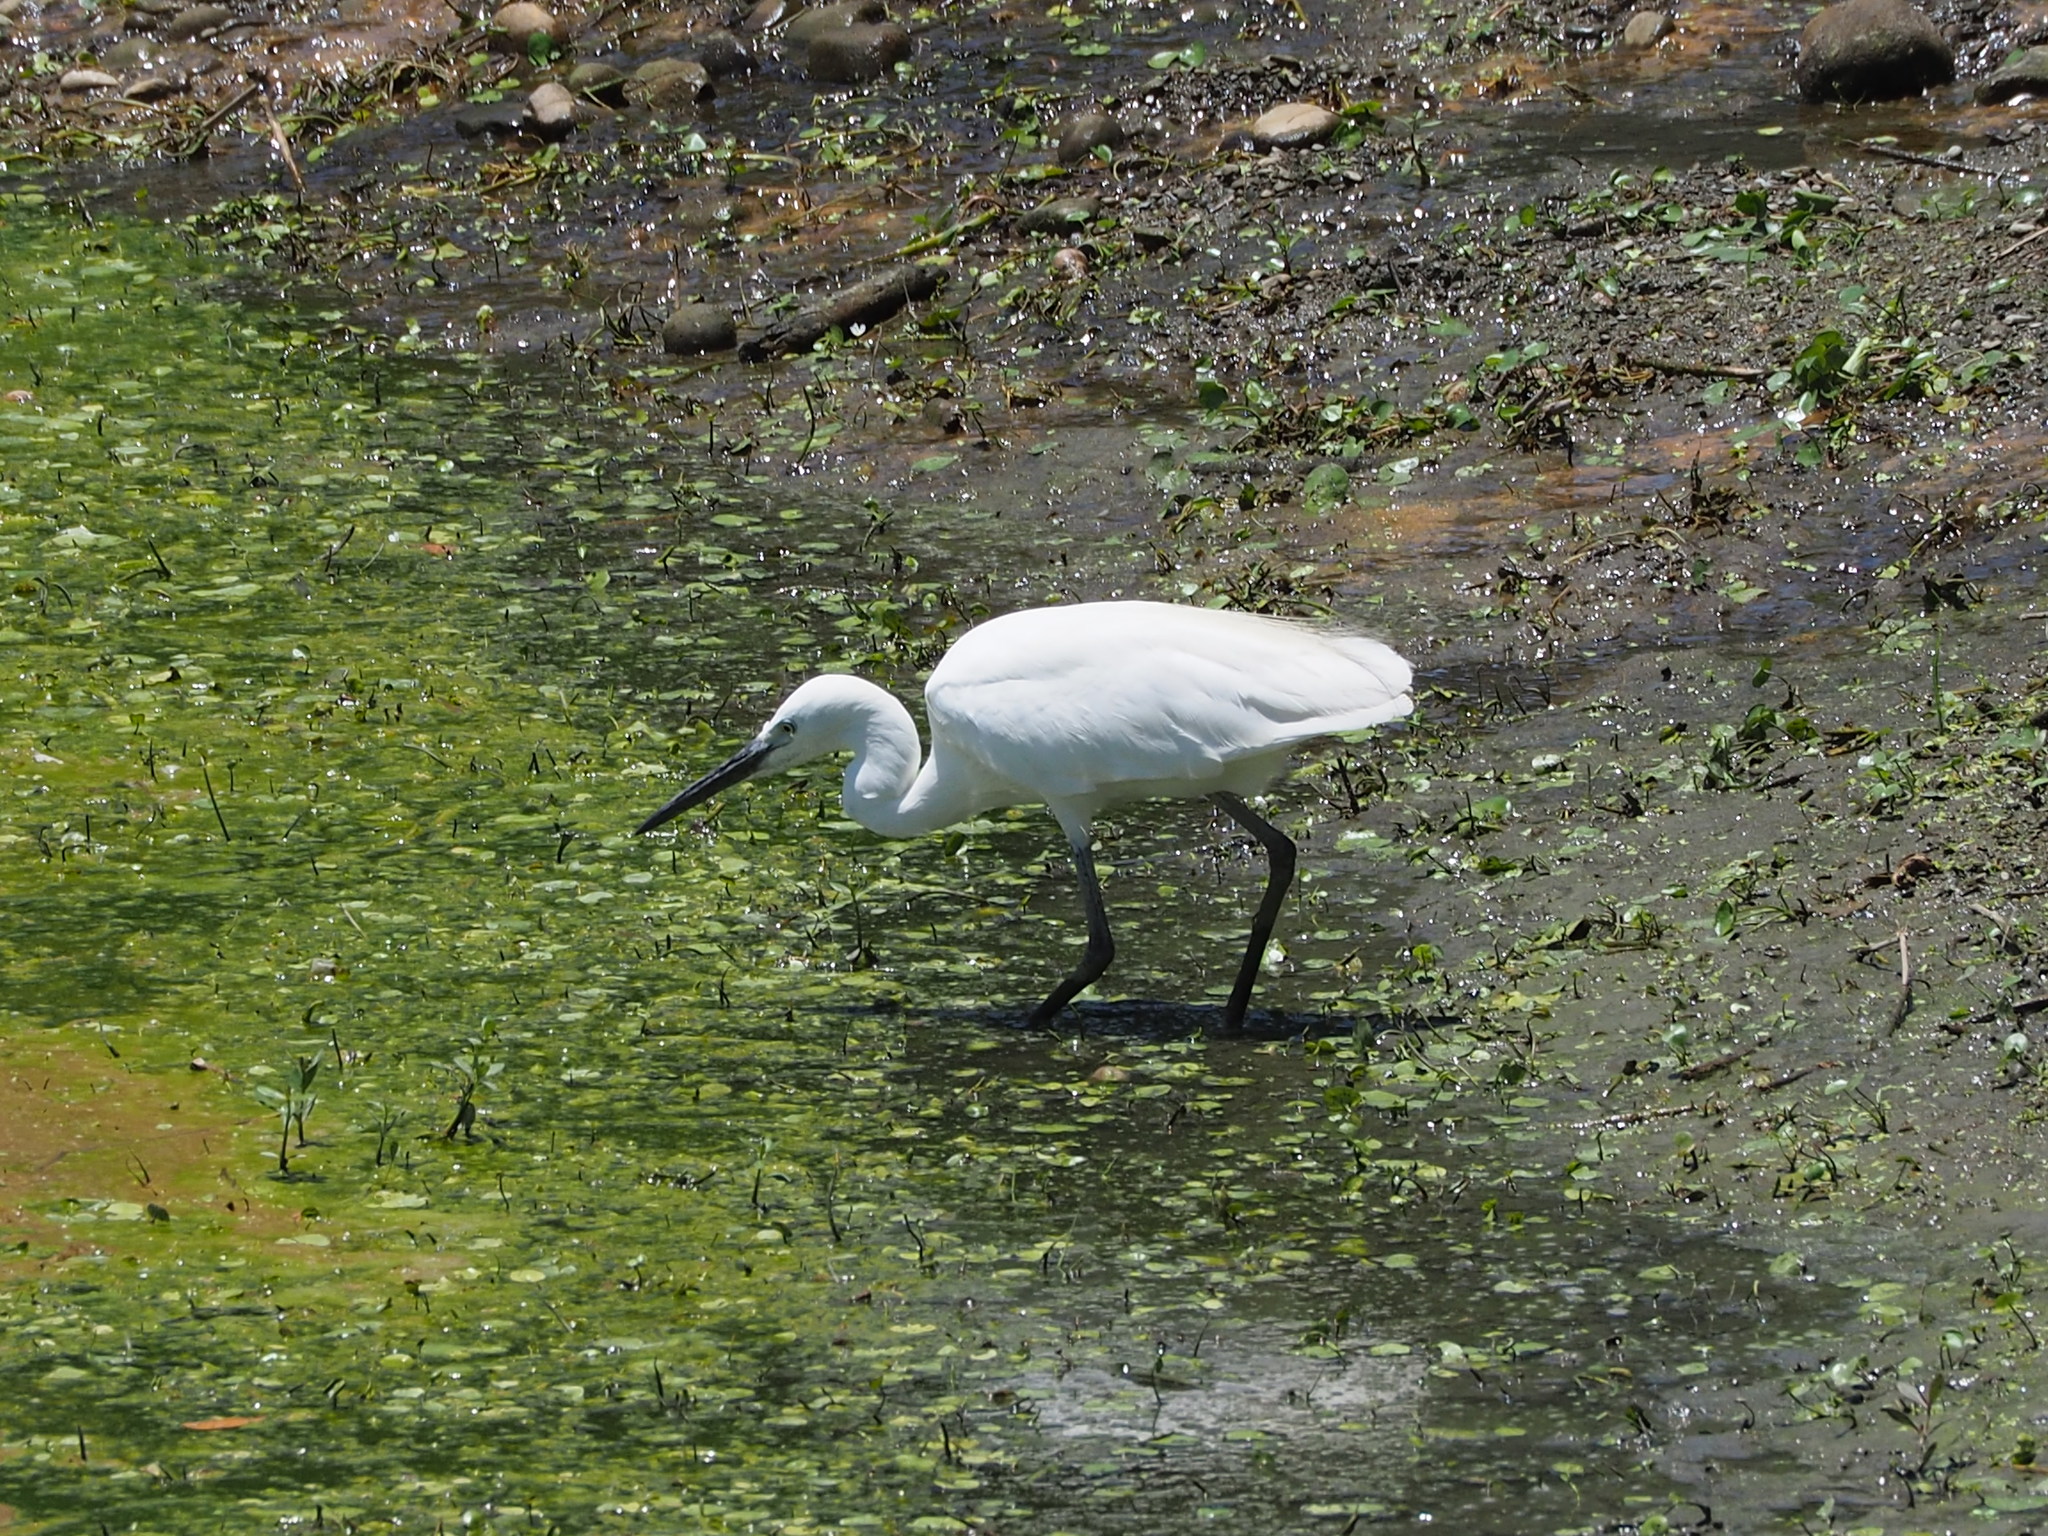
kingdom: Animalia
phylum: Chordata
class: Aves
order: Pelecaniformes
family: Ardeidae
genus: Egretta
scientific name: Egretta garzetta
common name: Little egret
